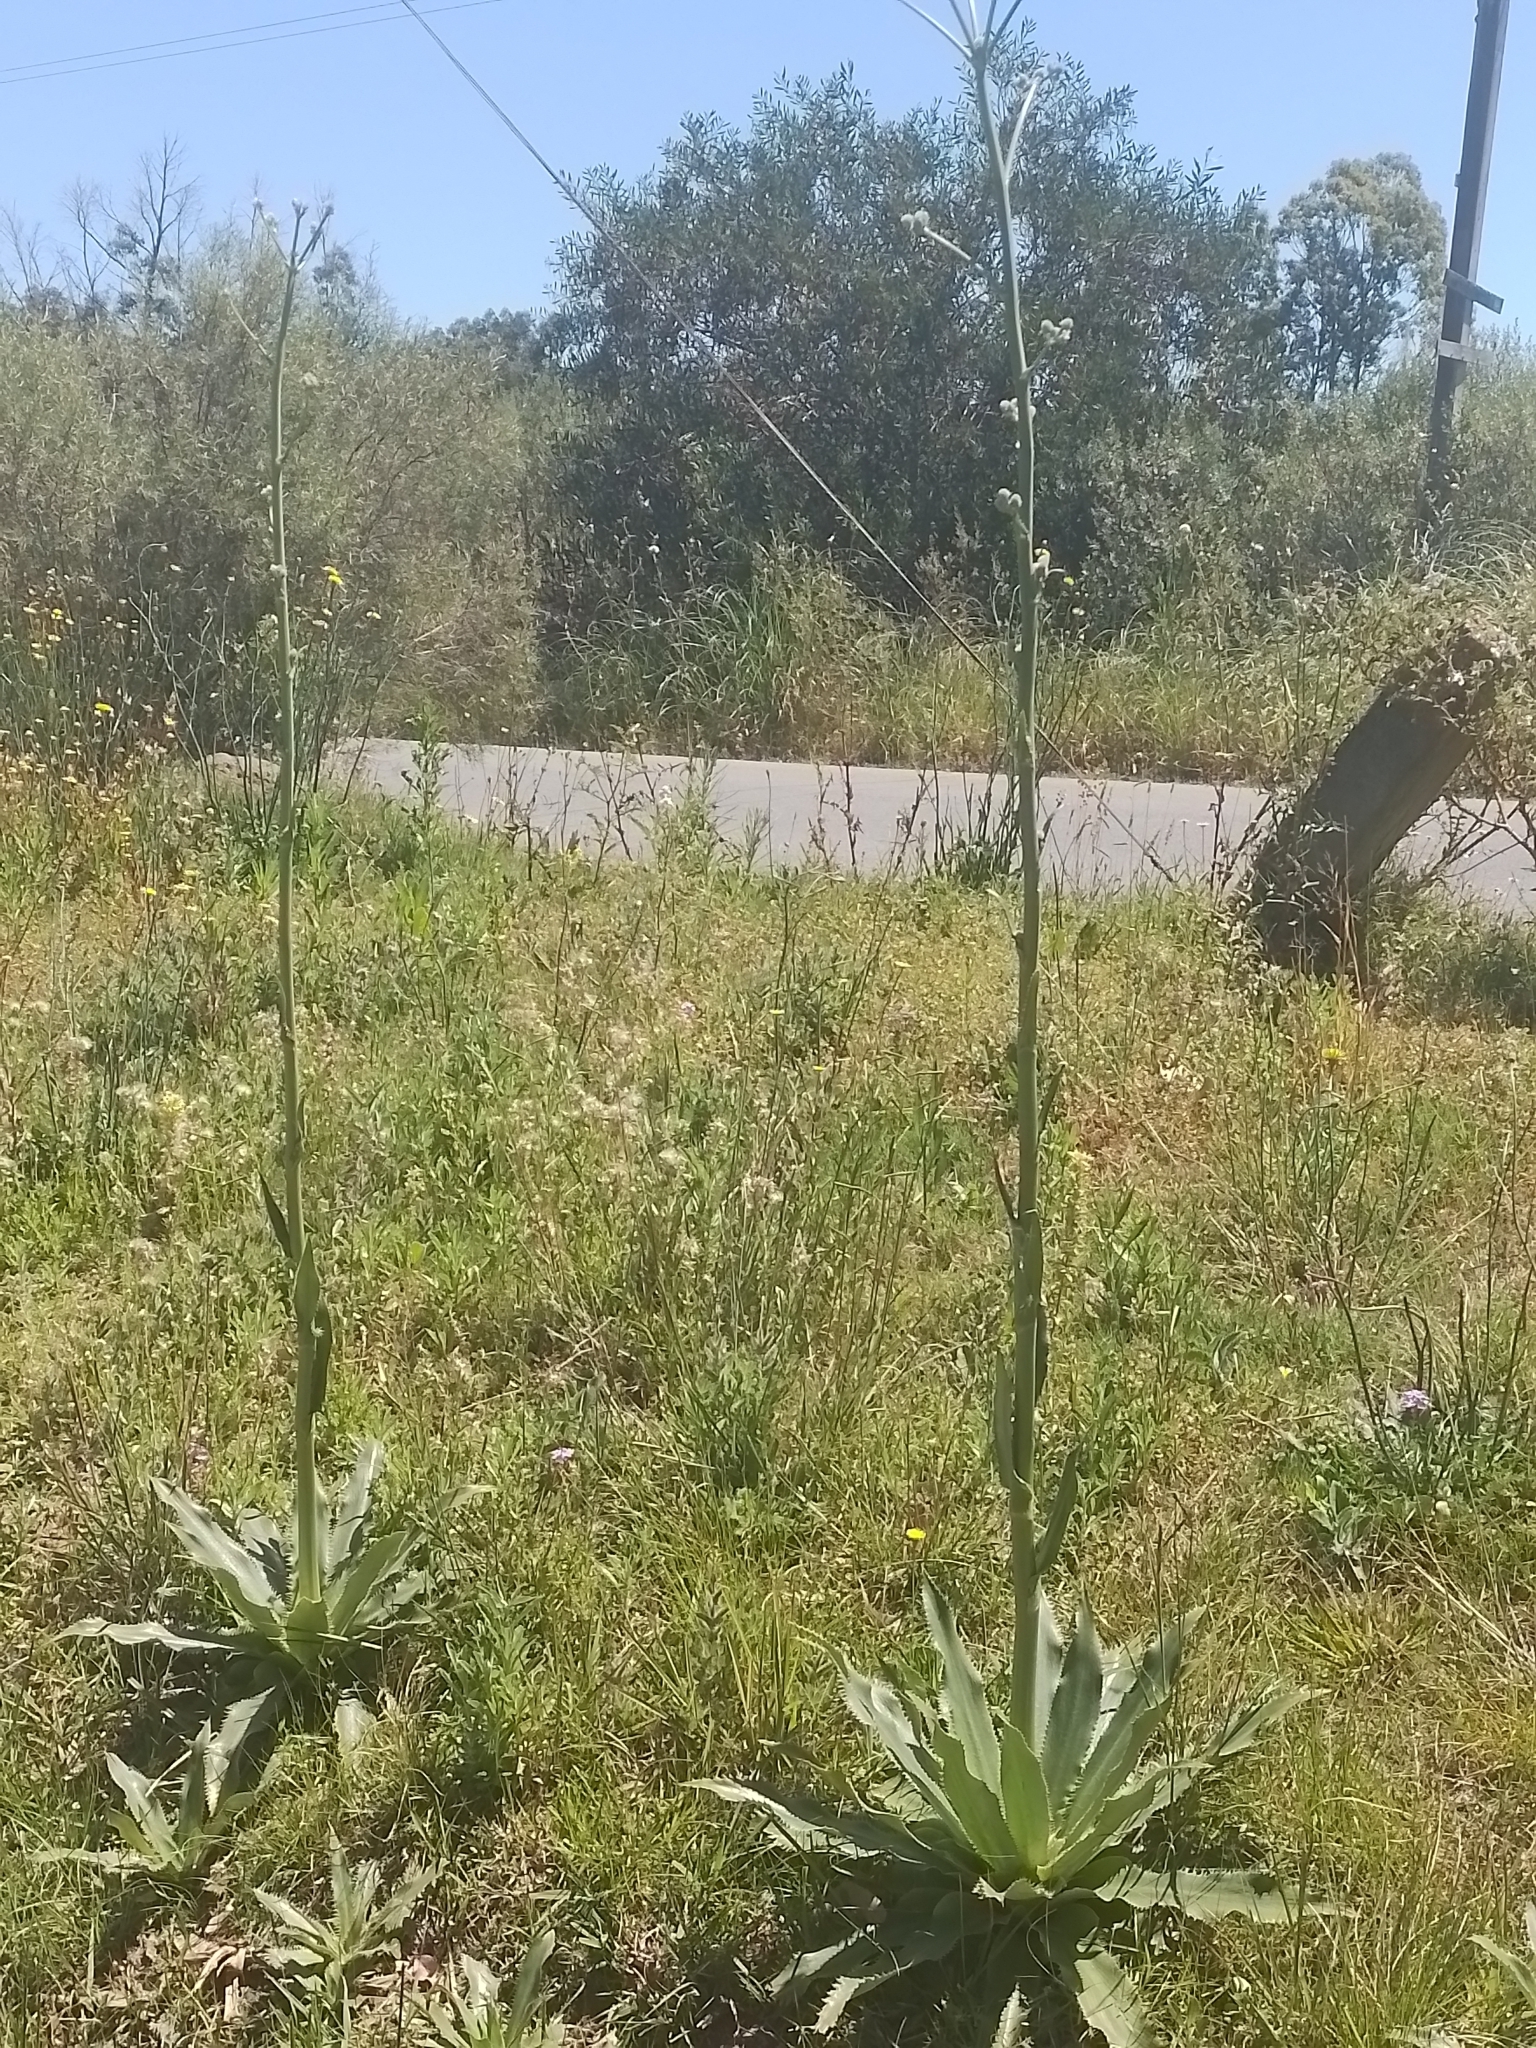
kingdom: Plantae
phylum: Tracheophyta
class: Magnoliopsida
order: Apiales
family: Apiaceae
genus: Eryngium
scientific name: Eryngium serra
